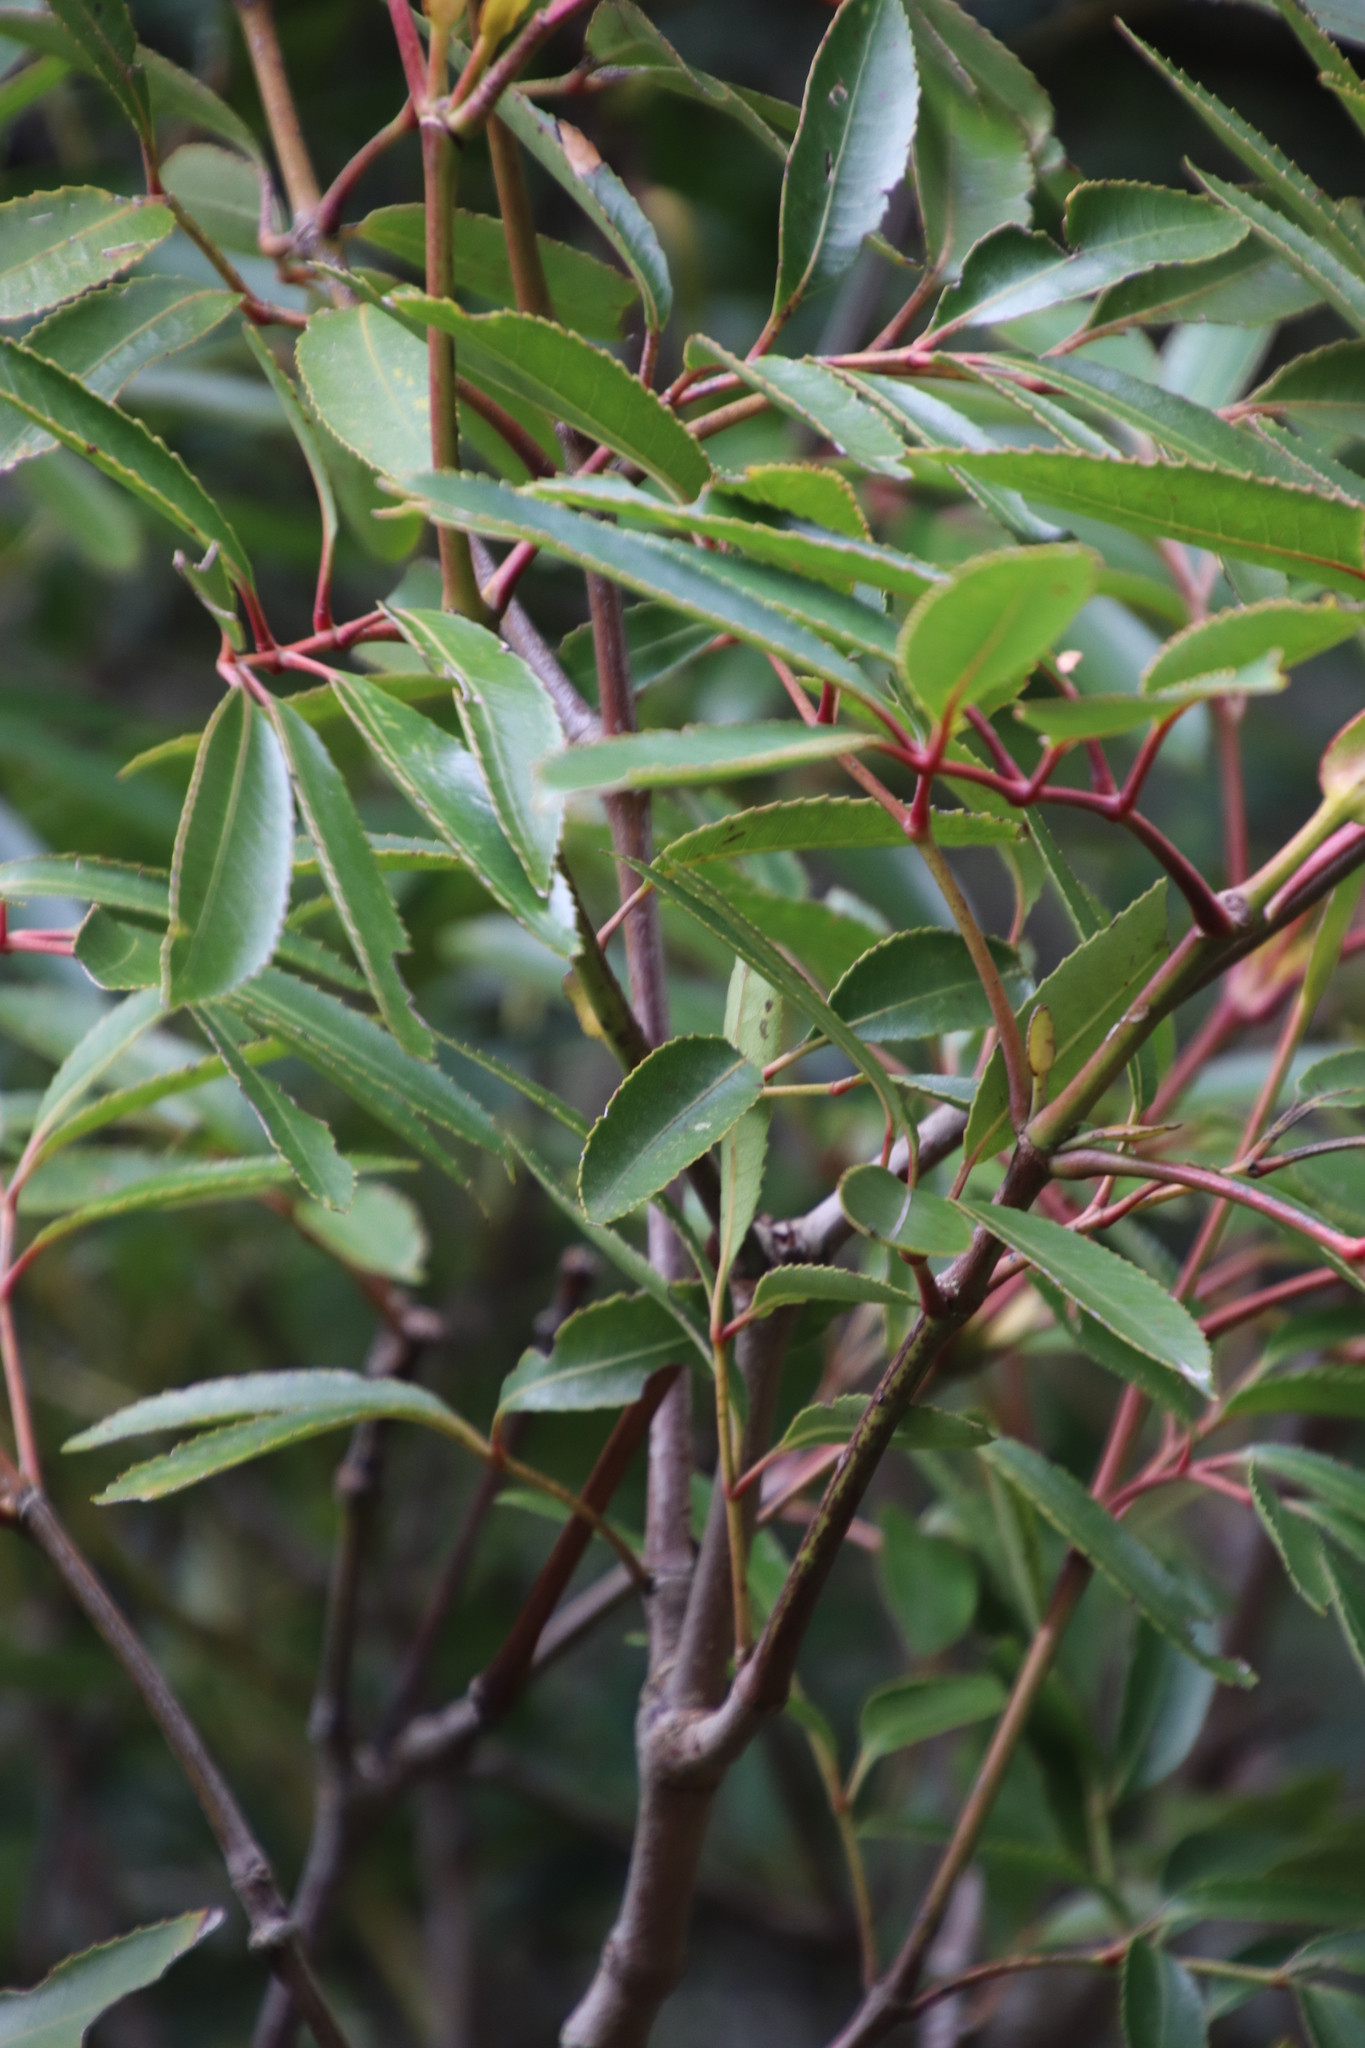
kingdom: Plantae
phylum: Tracheophyta
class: Magnoliopsida
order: Oxalidales
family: Cunoniaceae
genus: Cunonia
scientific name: Cunonia capensis
